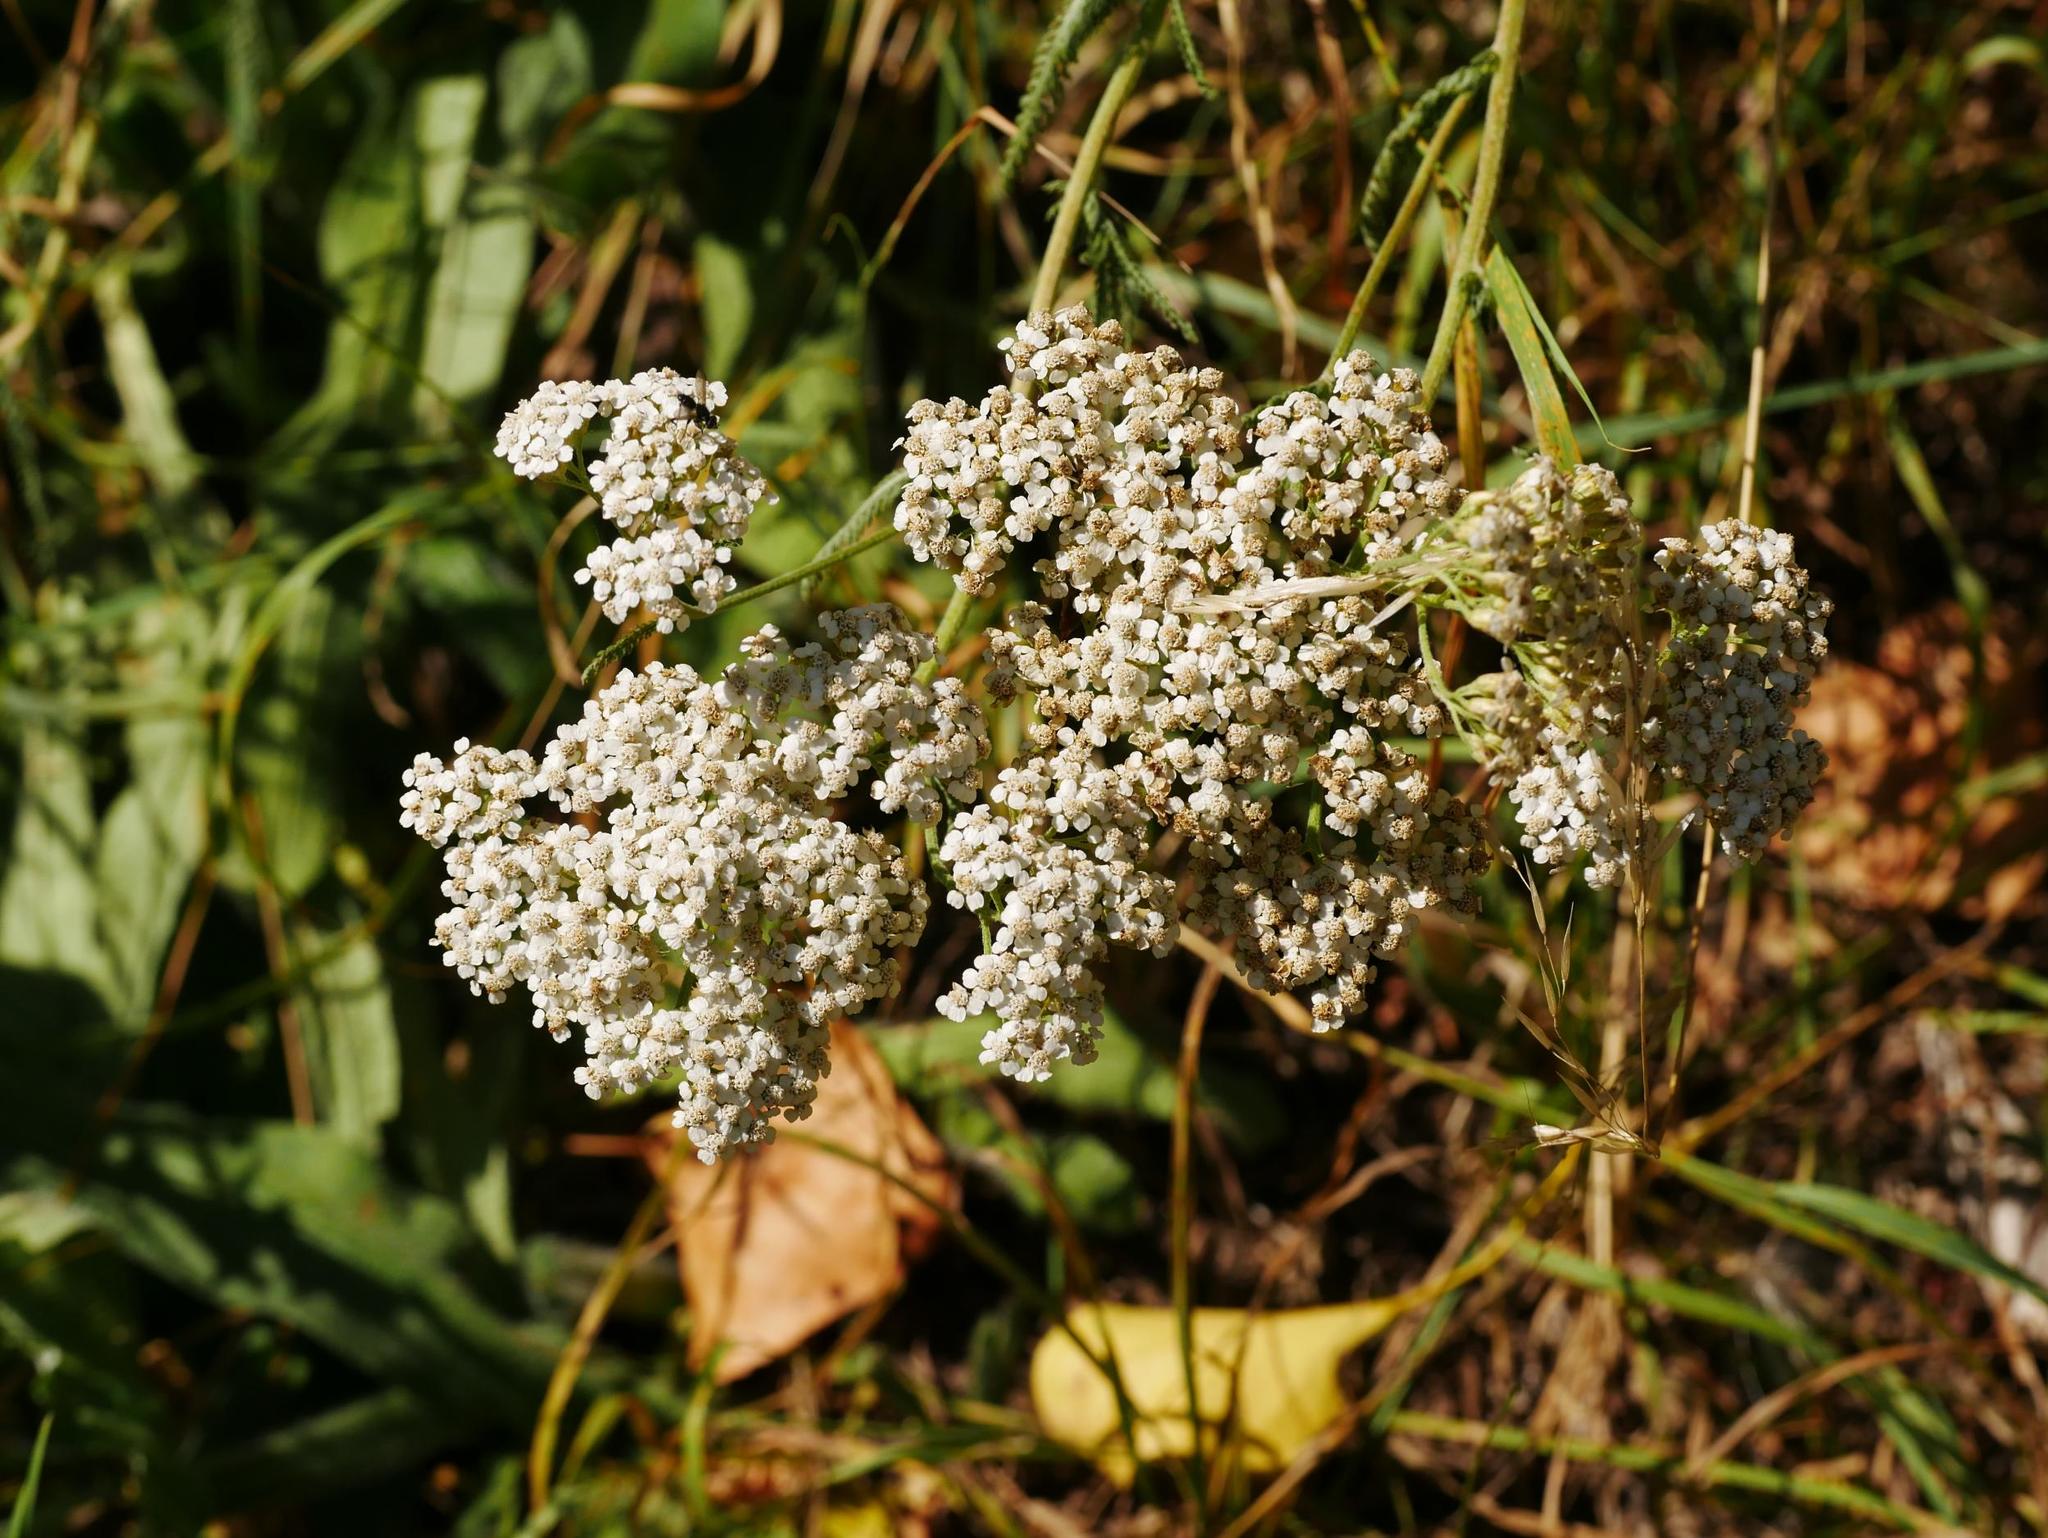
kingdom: Plantae
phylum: Tracheophyta
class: Magnoliopsida
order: Asterales
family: Asteraceae
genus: Achillea
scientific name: Achillea millefolium
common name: Yarrow
